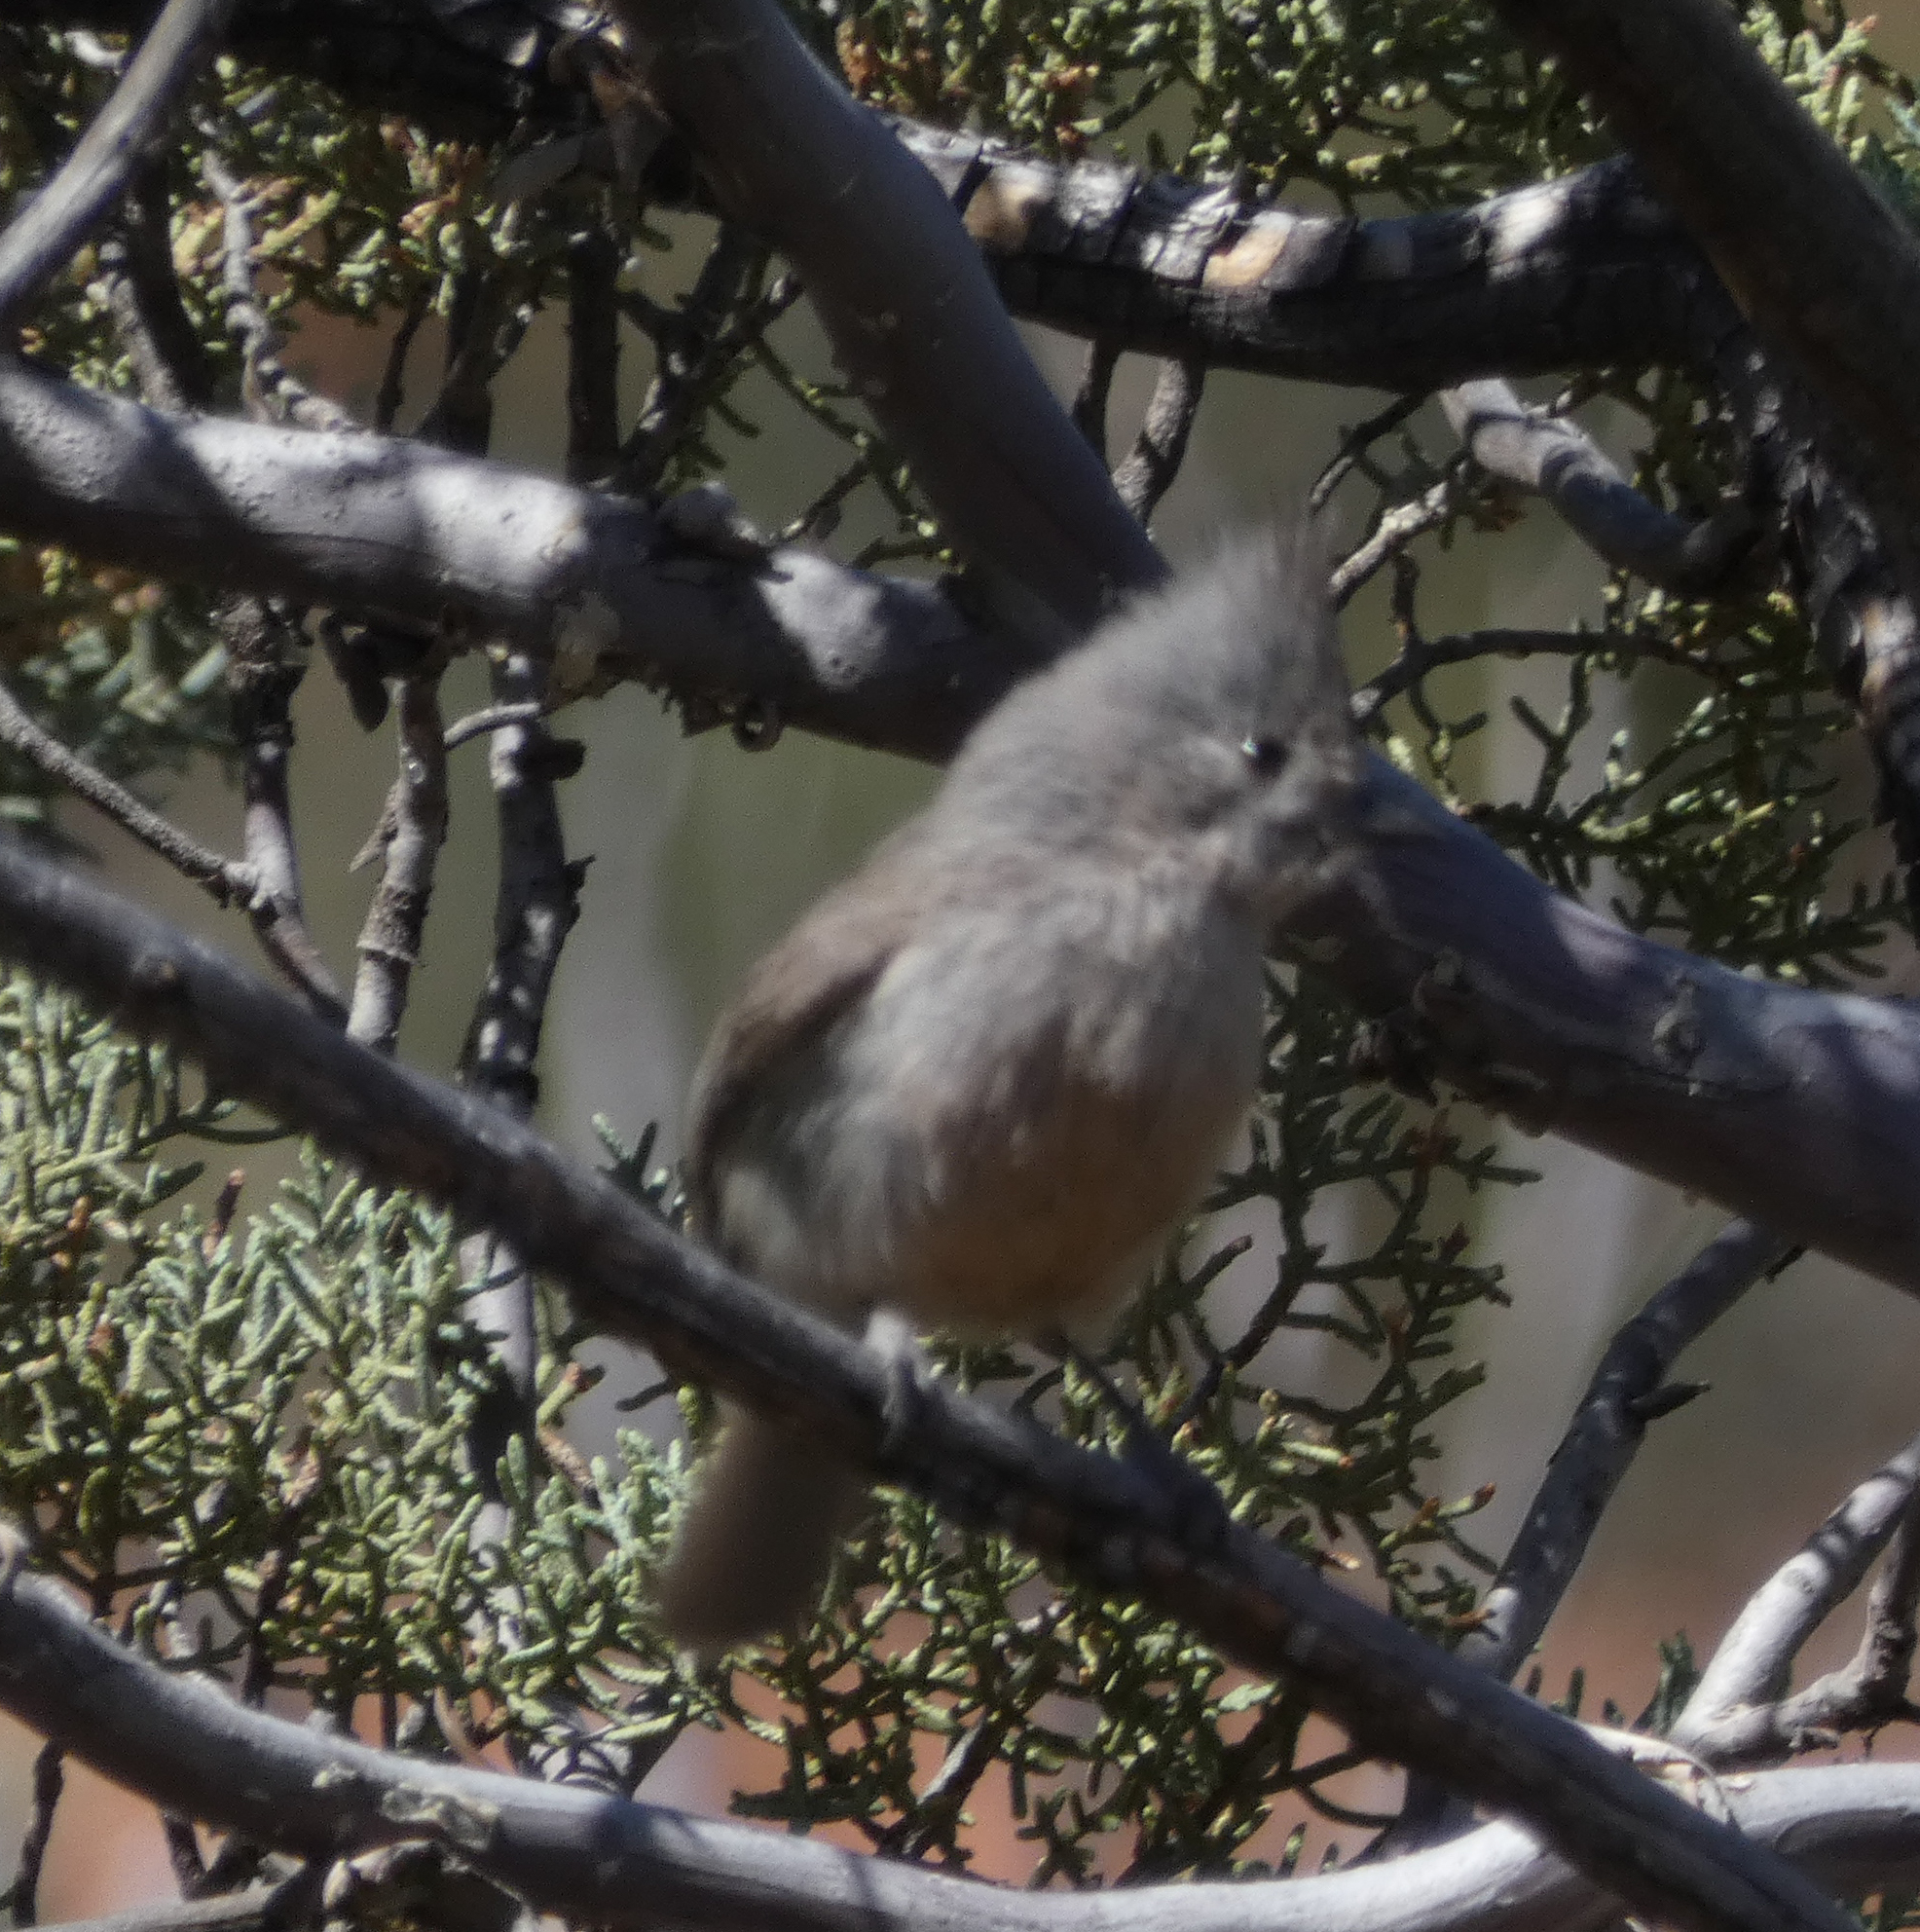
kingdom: Animalia
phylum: Chordata
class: Aves
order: Passeriformes
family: Paridae
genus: Baeolophus
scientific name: Baeolophus ridgwayi
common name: Juniper titmouse
